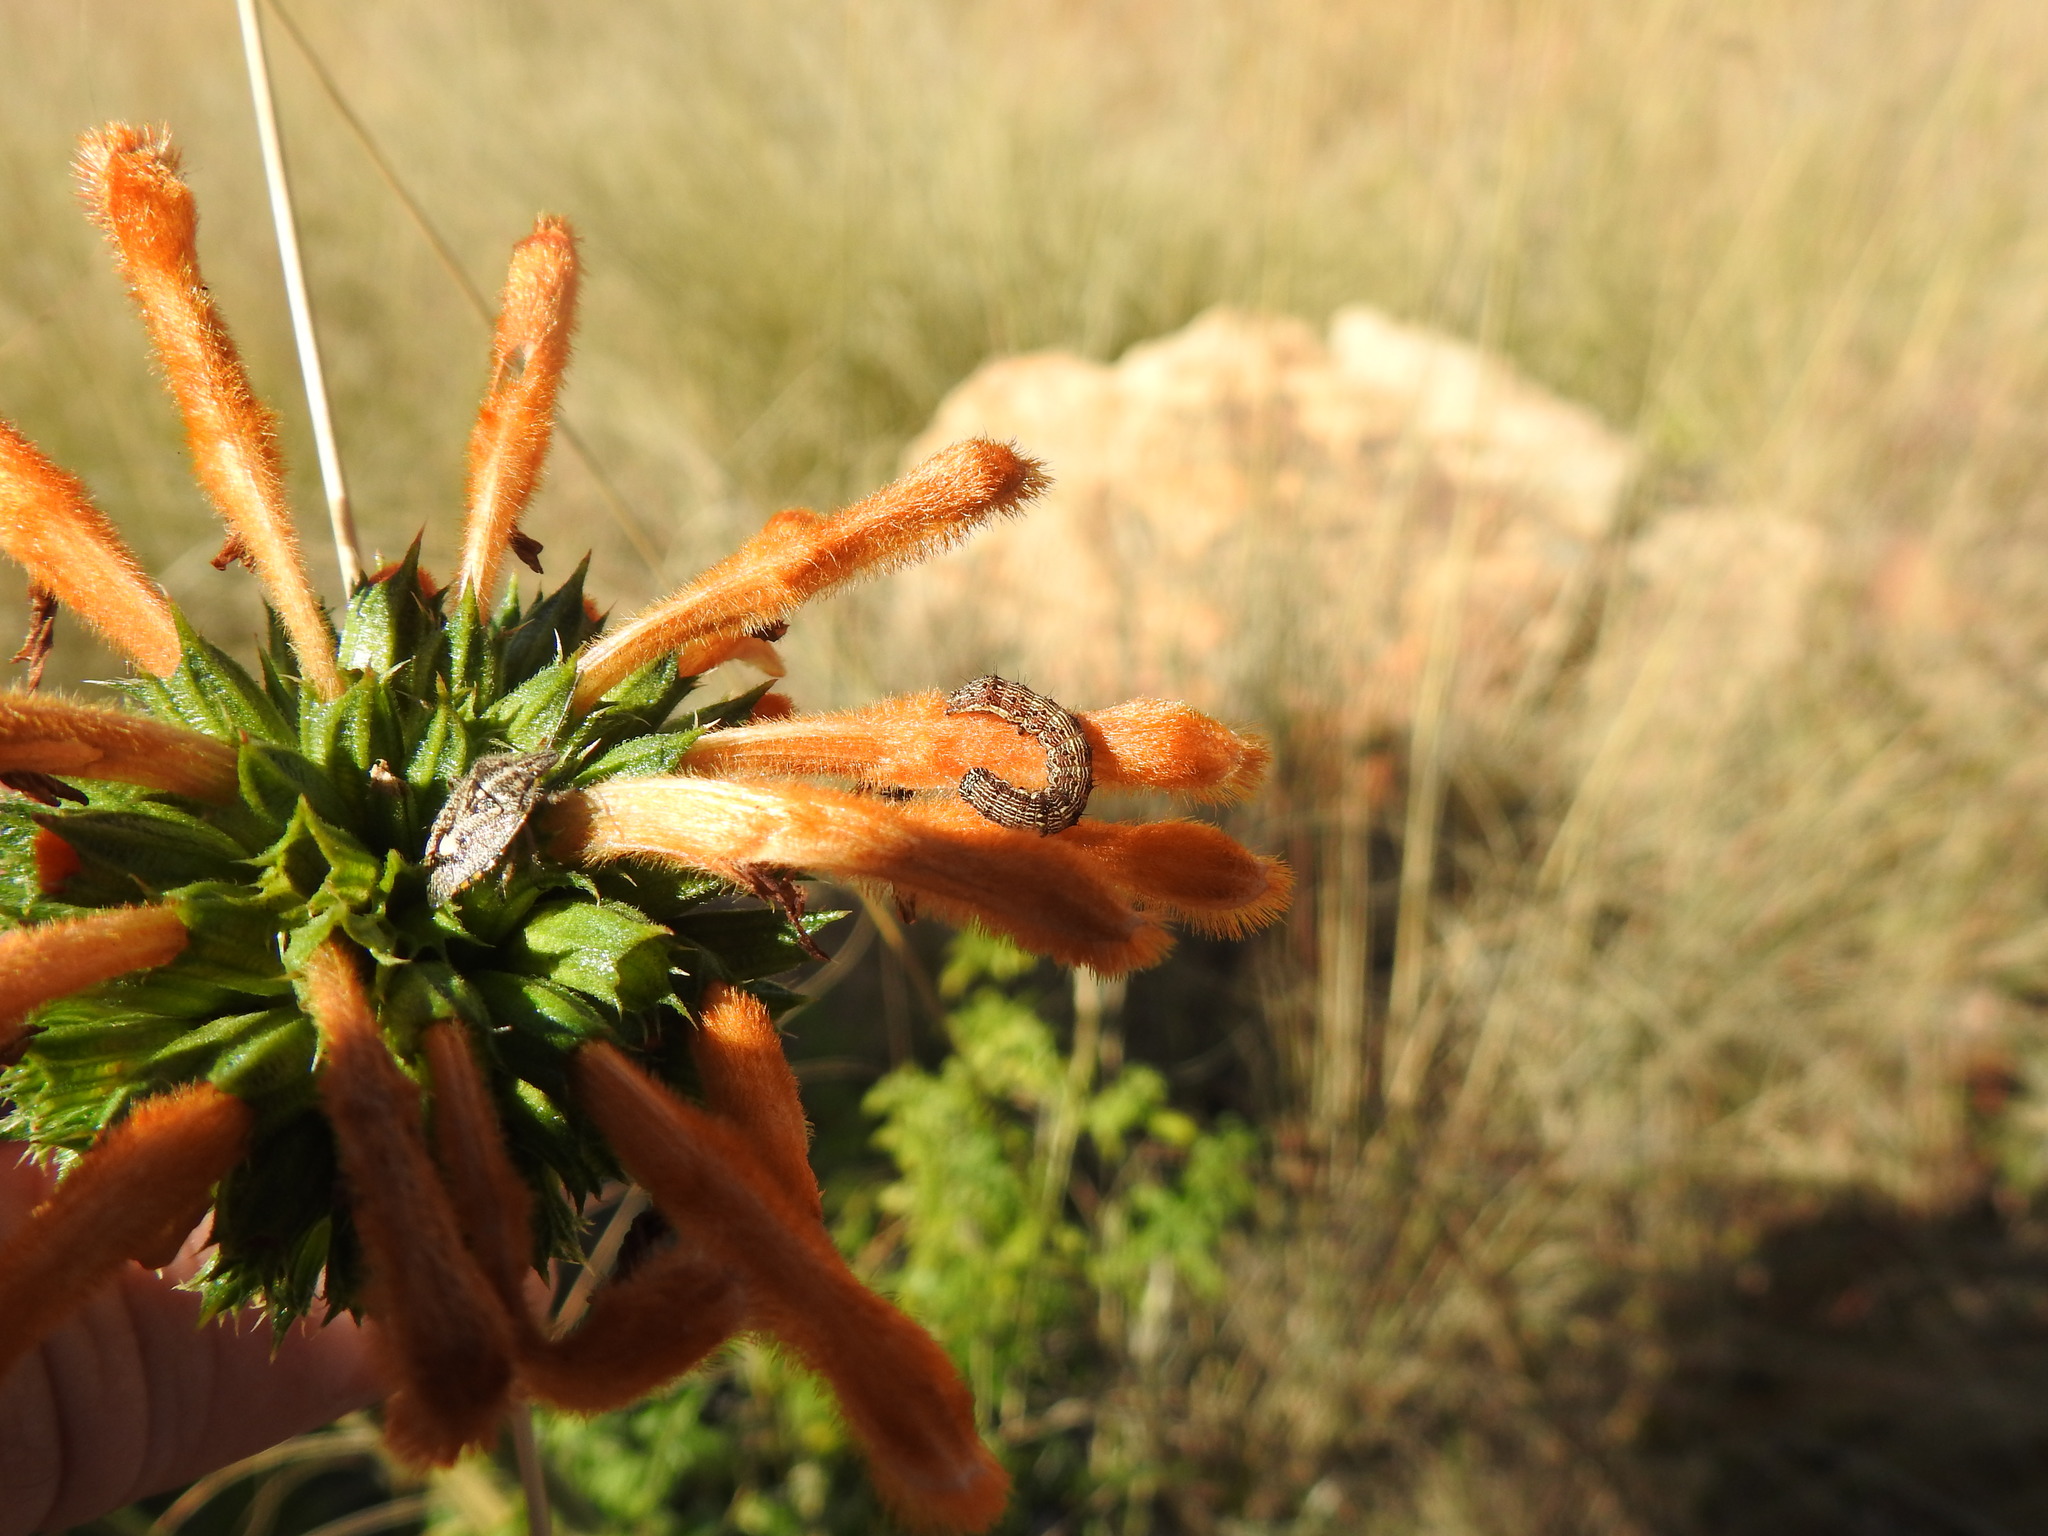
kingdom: Plantae
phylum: Tracheophyta
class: Magnoliopsida
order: Lamiales
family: Lamiaceae
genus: Leonotis
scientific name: Leonotis ocymifolia
